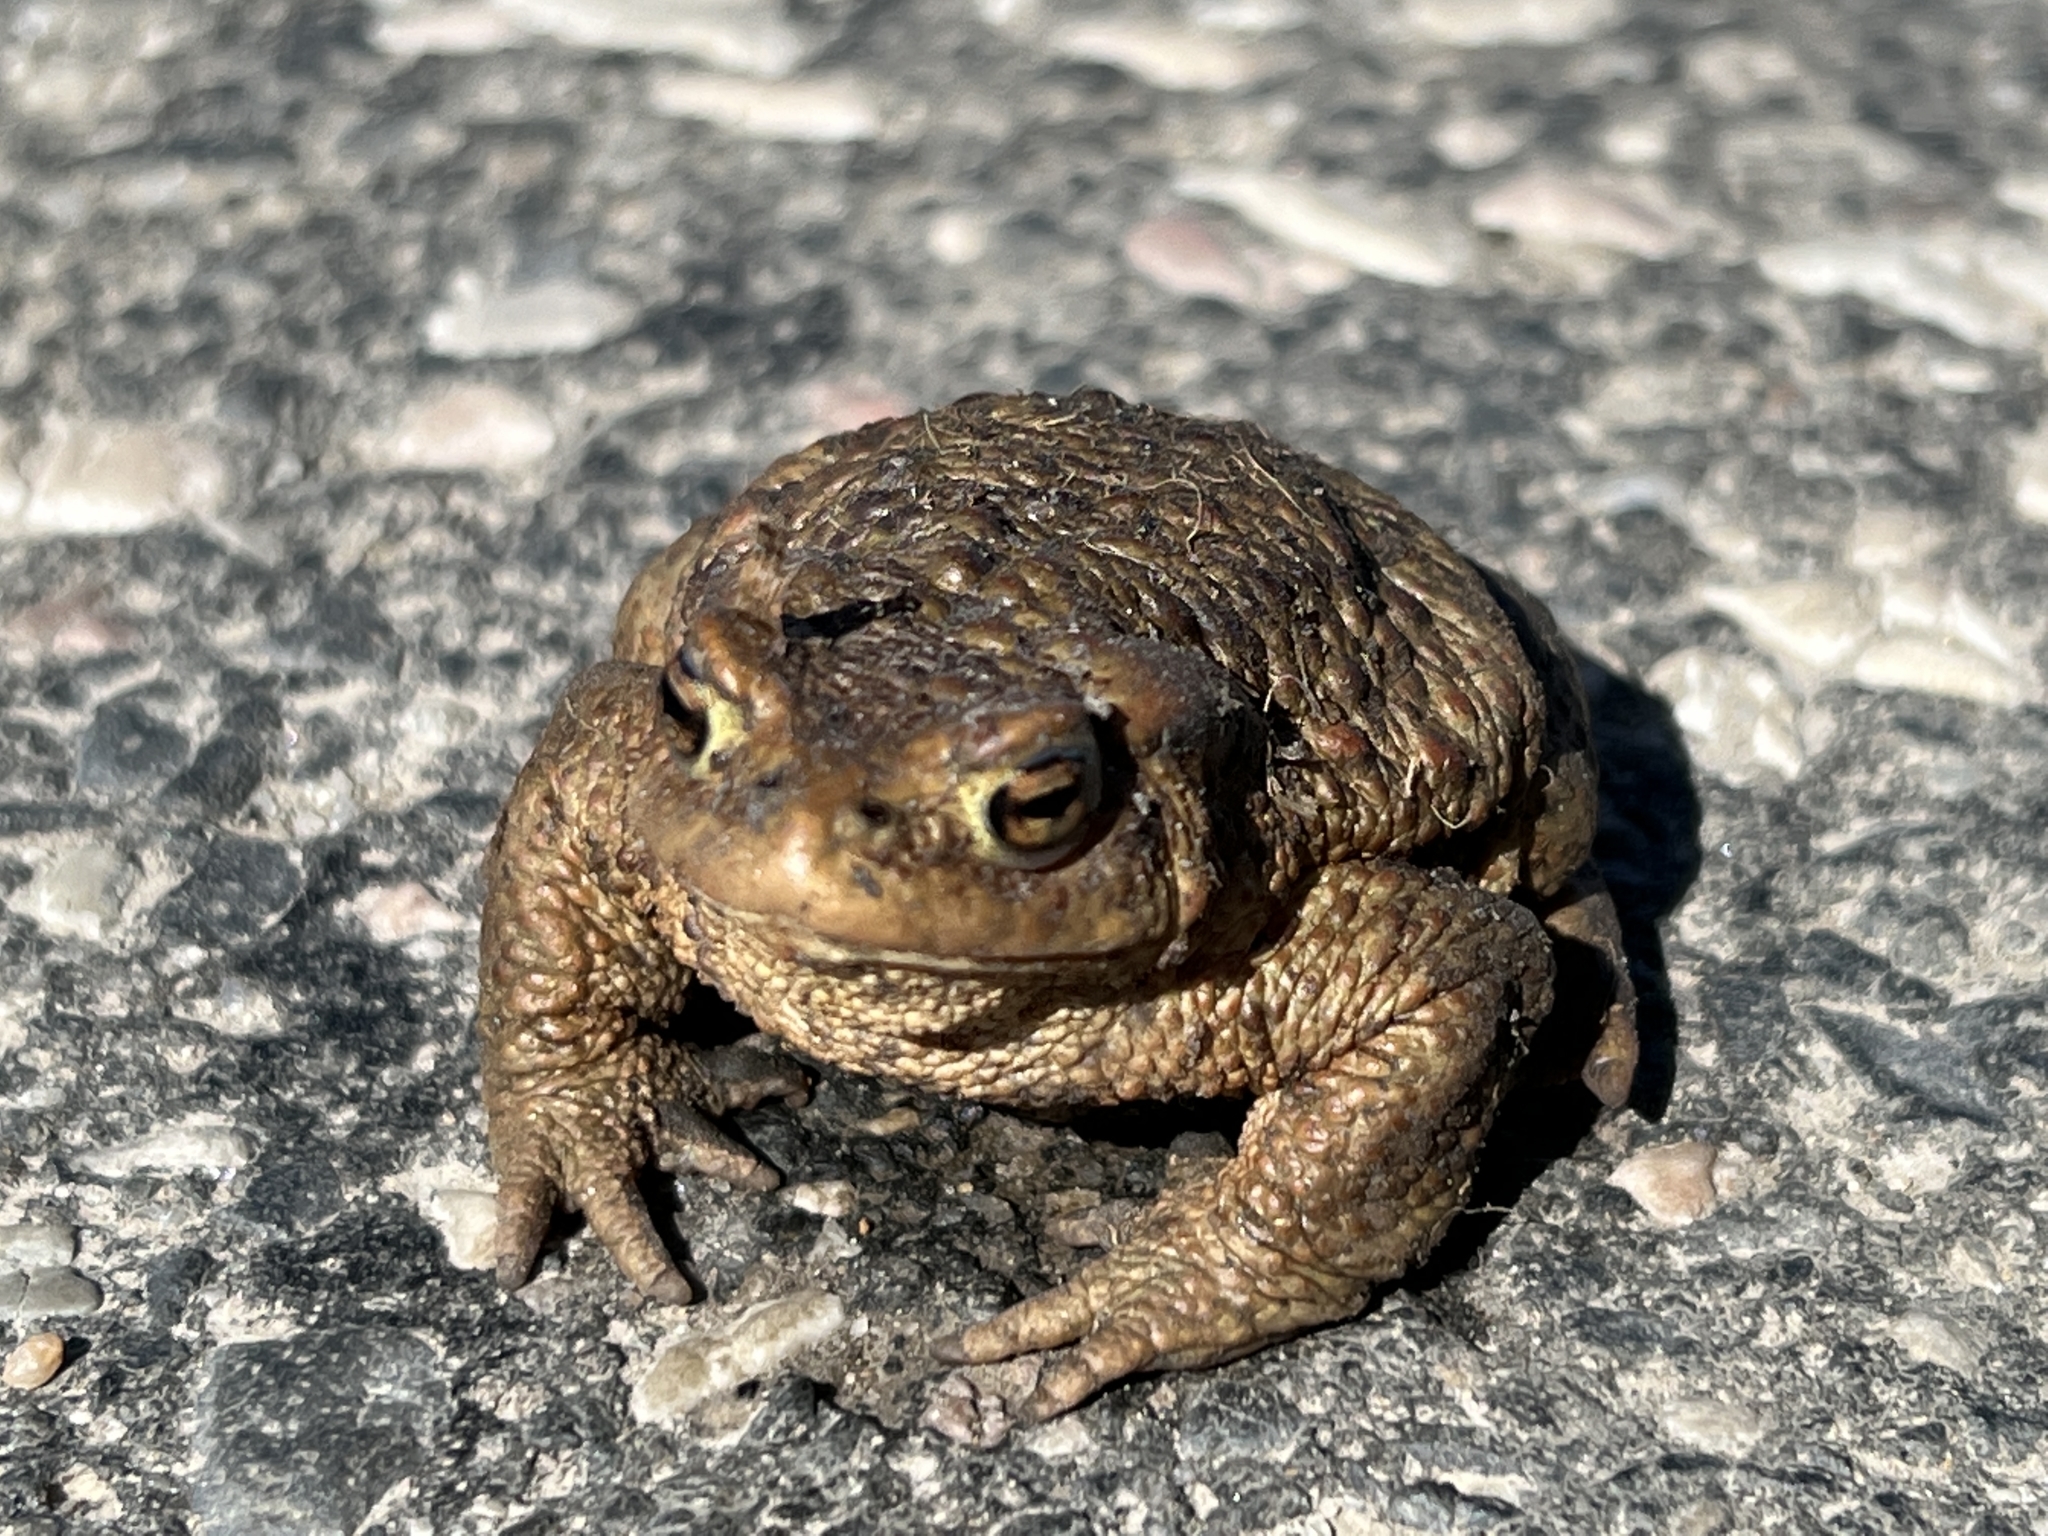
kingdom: Animalia
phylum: Chordata
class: Amphibia
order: Anura
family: Bufonidae
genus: Bufo
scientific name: Bufo bufo
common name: Common toad
